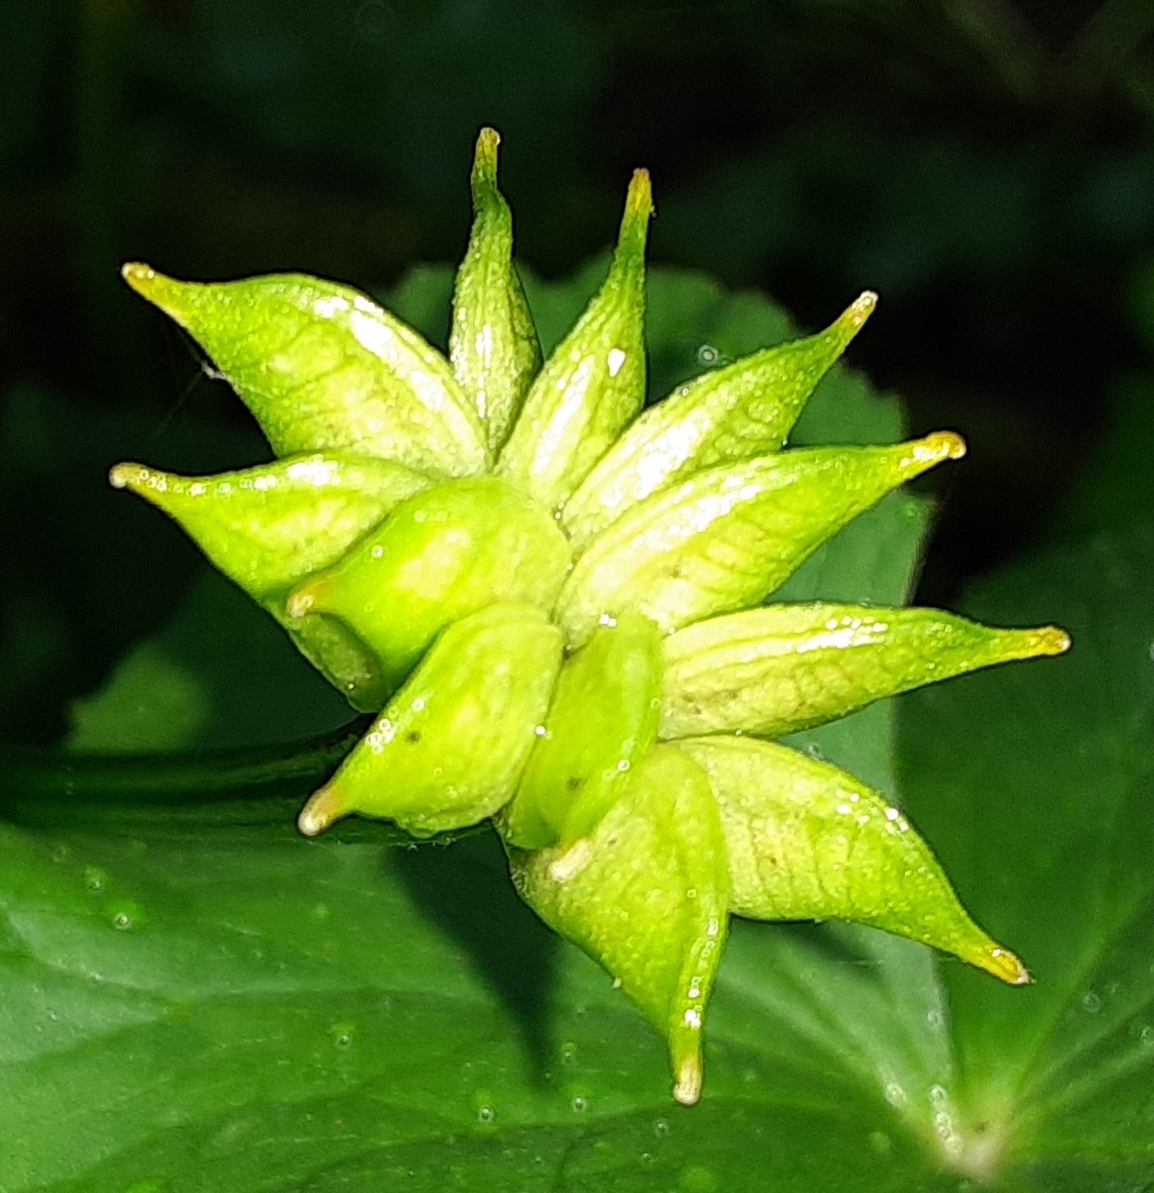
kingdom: Plantae
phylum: Tracheophyta
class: Magnoliopsida
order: Ranunculales
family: Ranunculaceae
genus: Caltha
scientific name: Caltha palustris
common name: Marsh marigold
